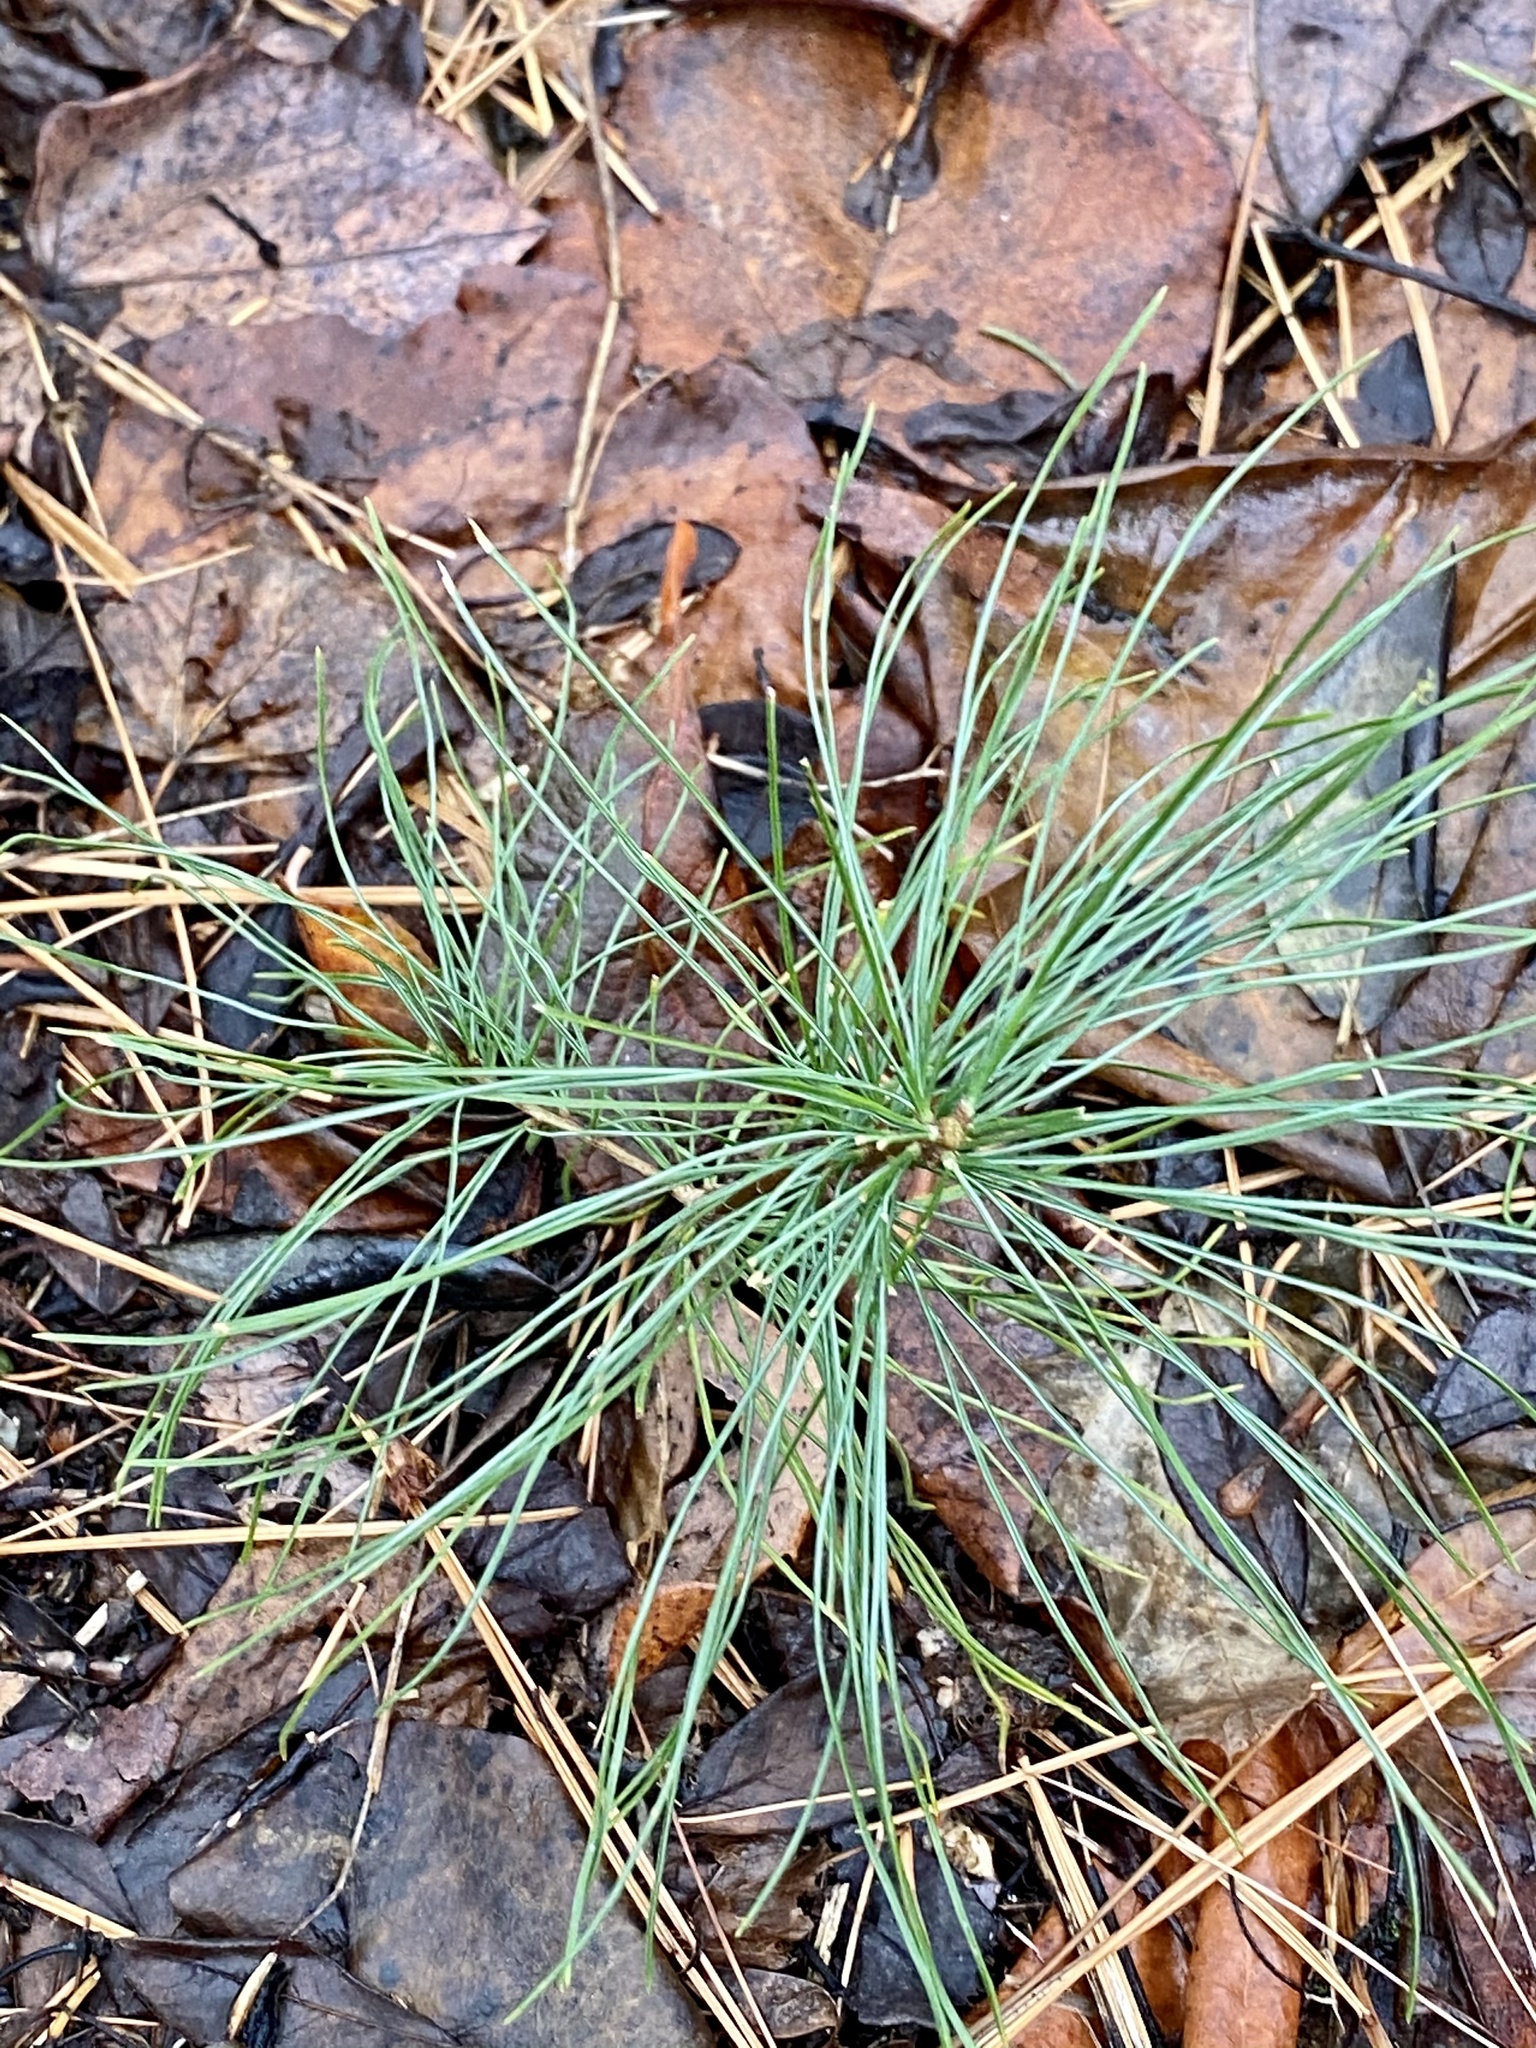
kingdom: Plantae
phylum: Tracheophyta
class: Pinopsida
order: Pinales
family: Pinaceae
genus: Pinus
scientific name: Pinus strobus
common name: Weymouth pine
